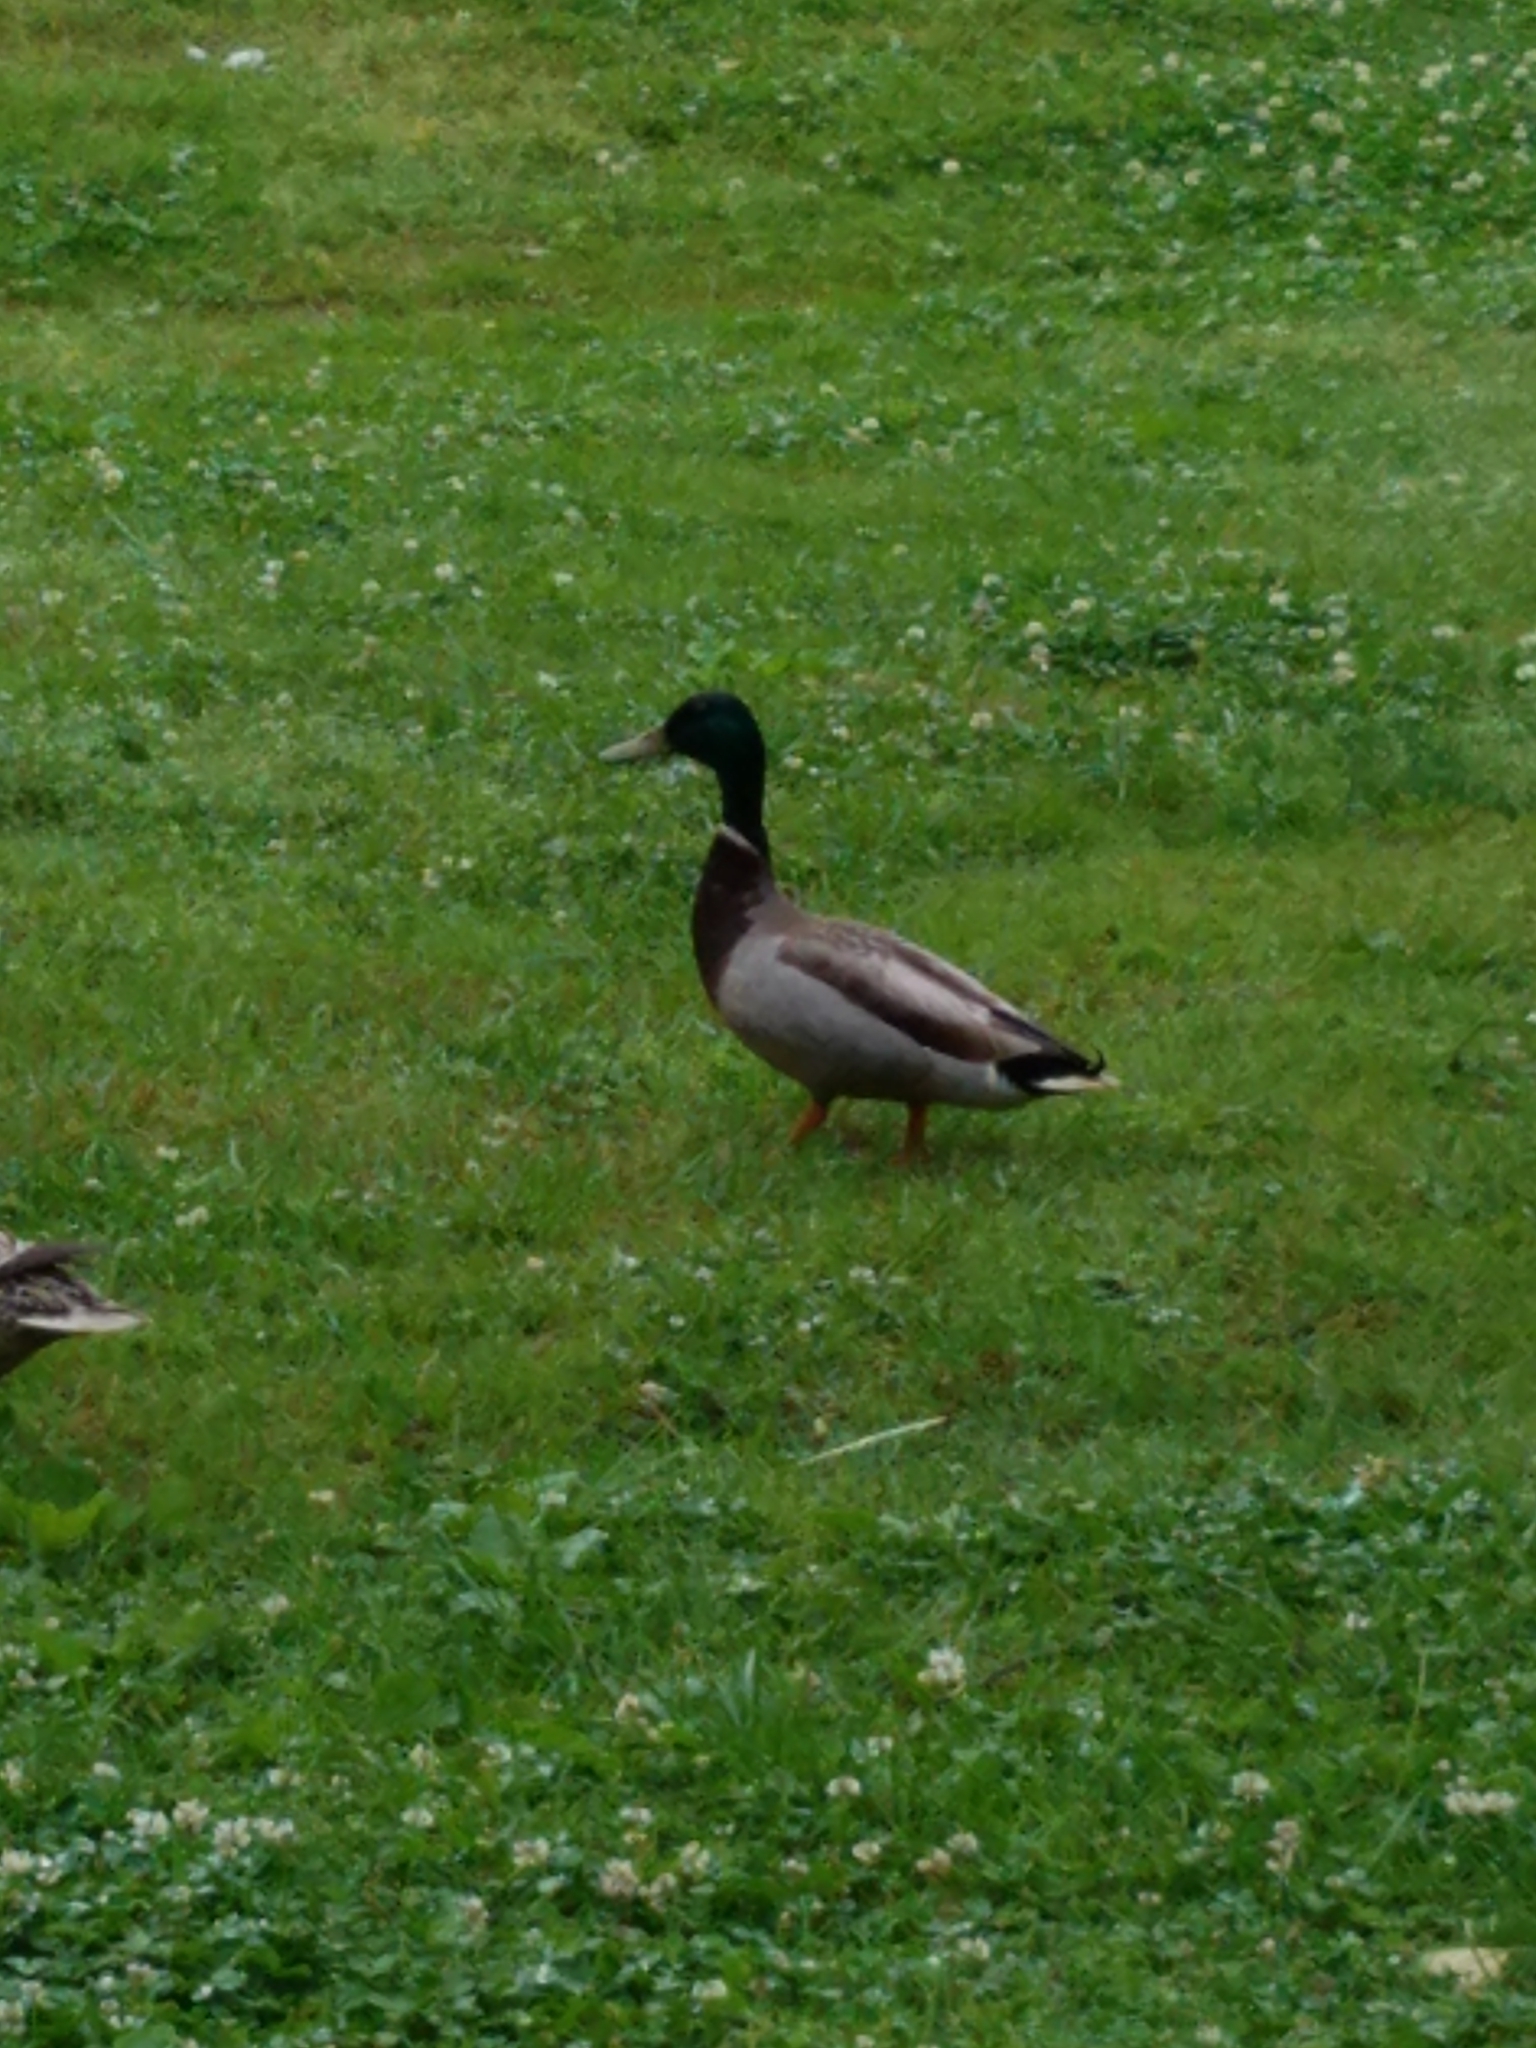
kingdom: Animalia
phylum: Chordata
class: Aves
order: Anseriformes
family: Anatidae
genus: Anas
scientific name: Anas platyrhynchos
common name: Mallard
